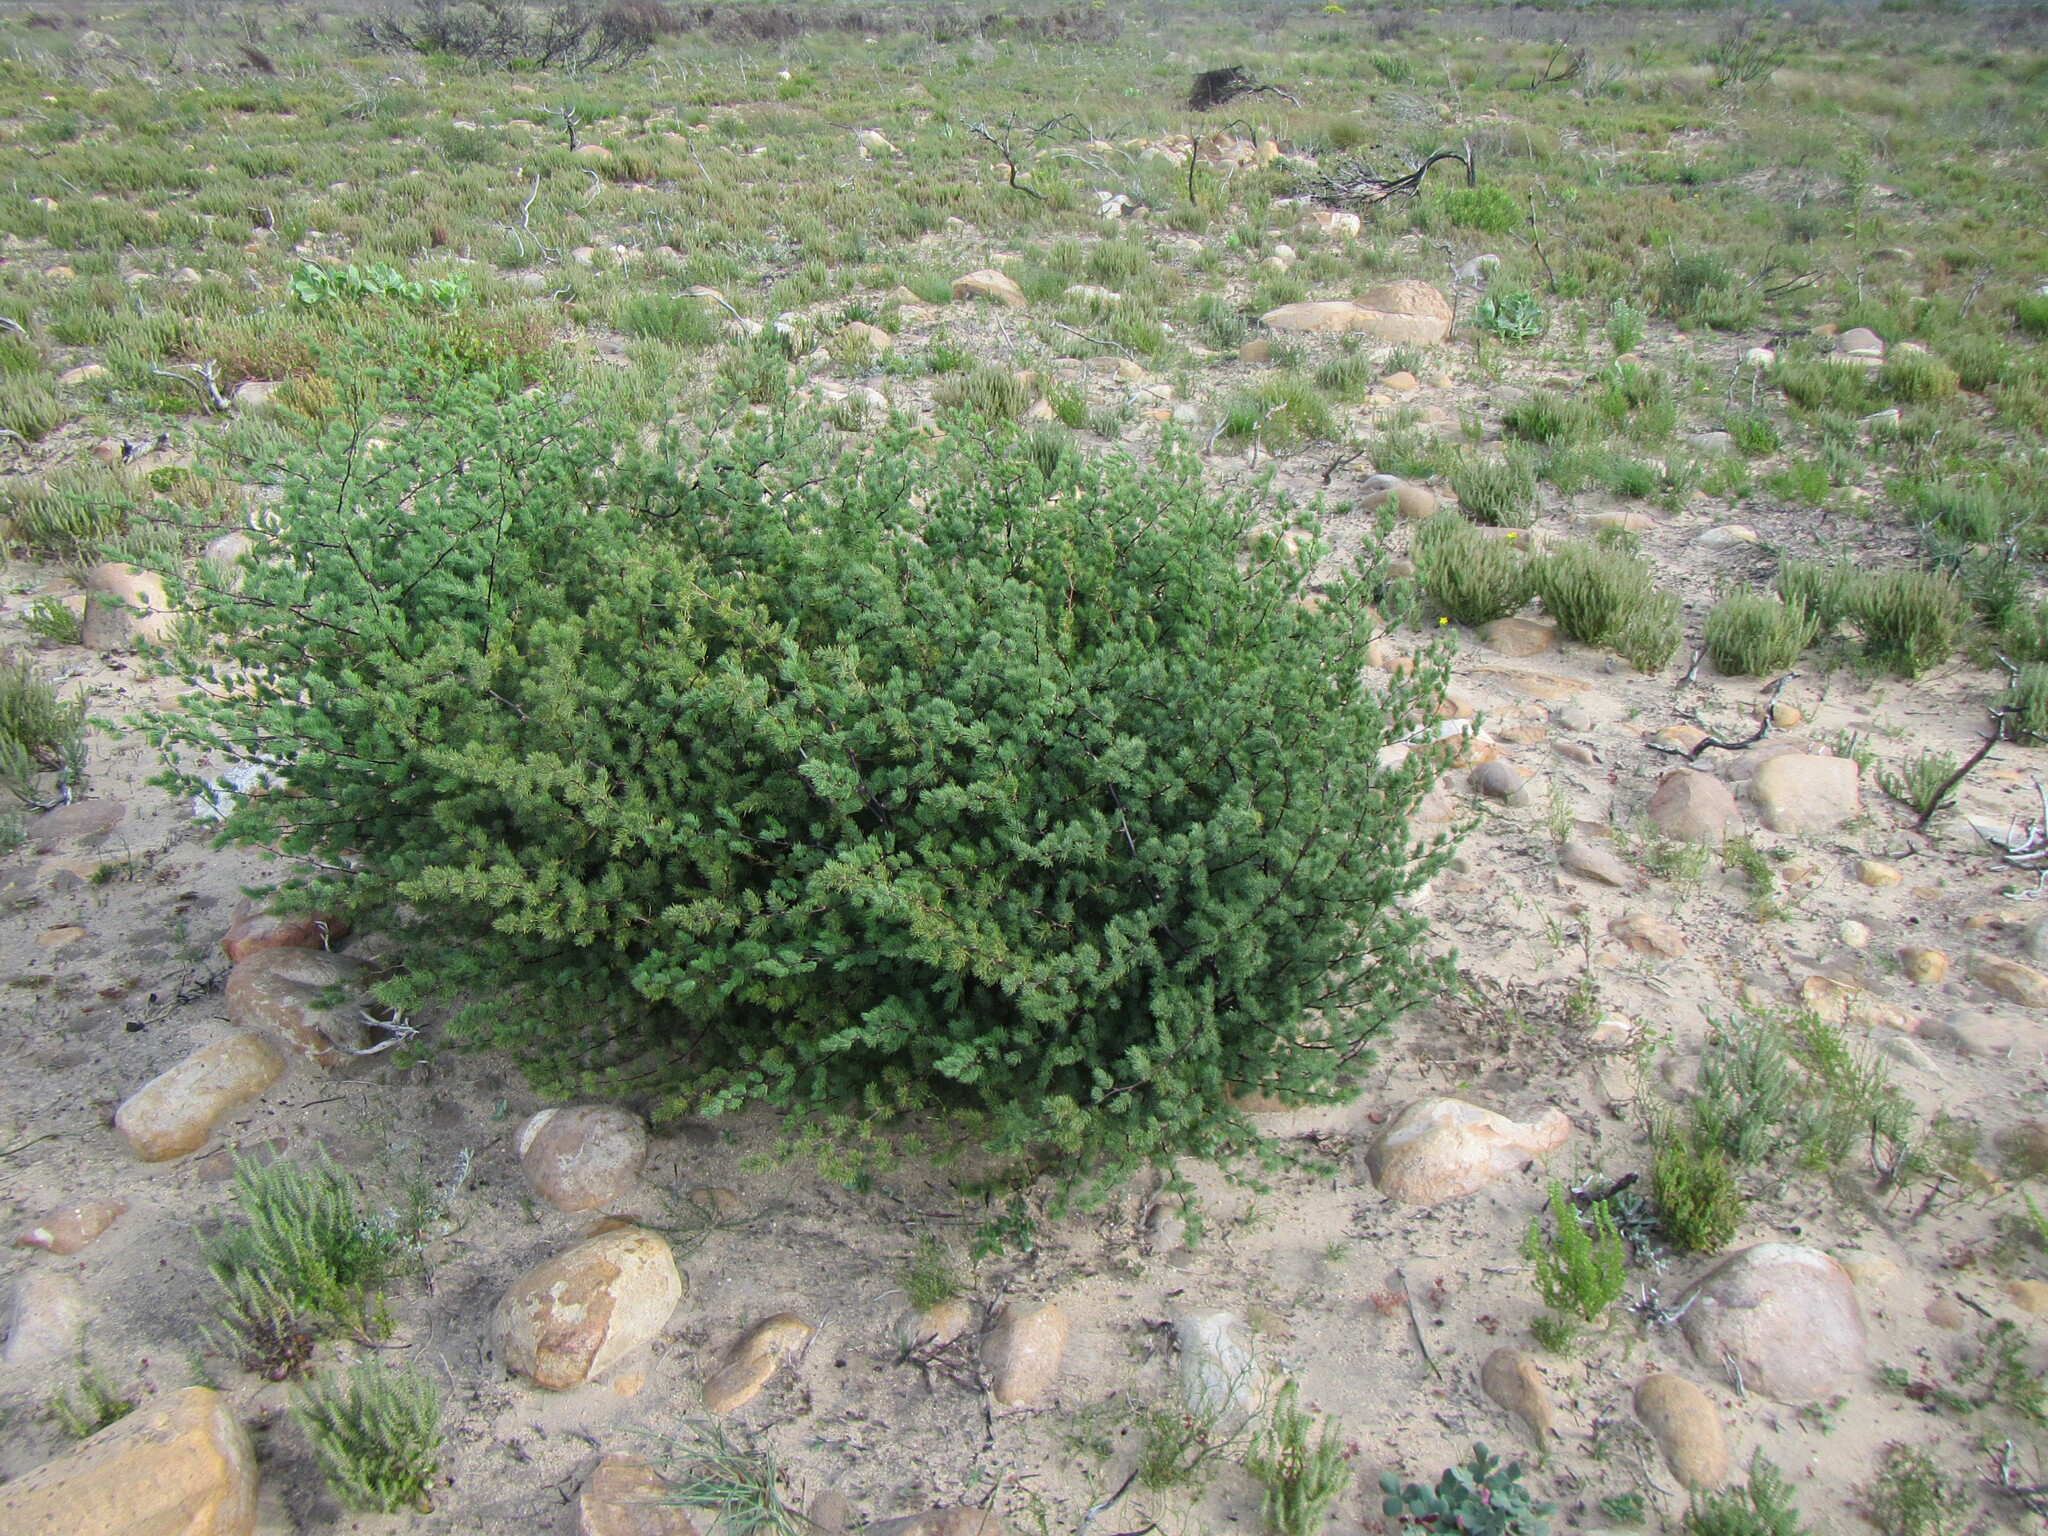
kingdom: Plantae
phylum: Tracheophyta
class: Liliopsida
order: Asparagales
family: Asparagaceae
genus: Asparagus
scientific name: Asparagus rubicundus
